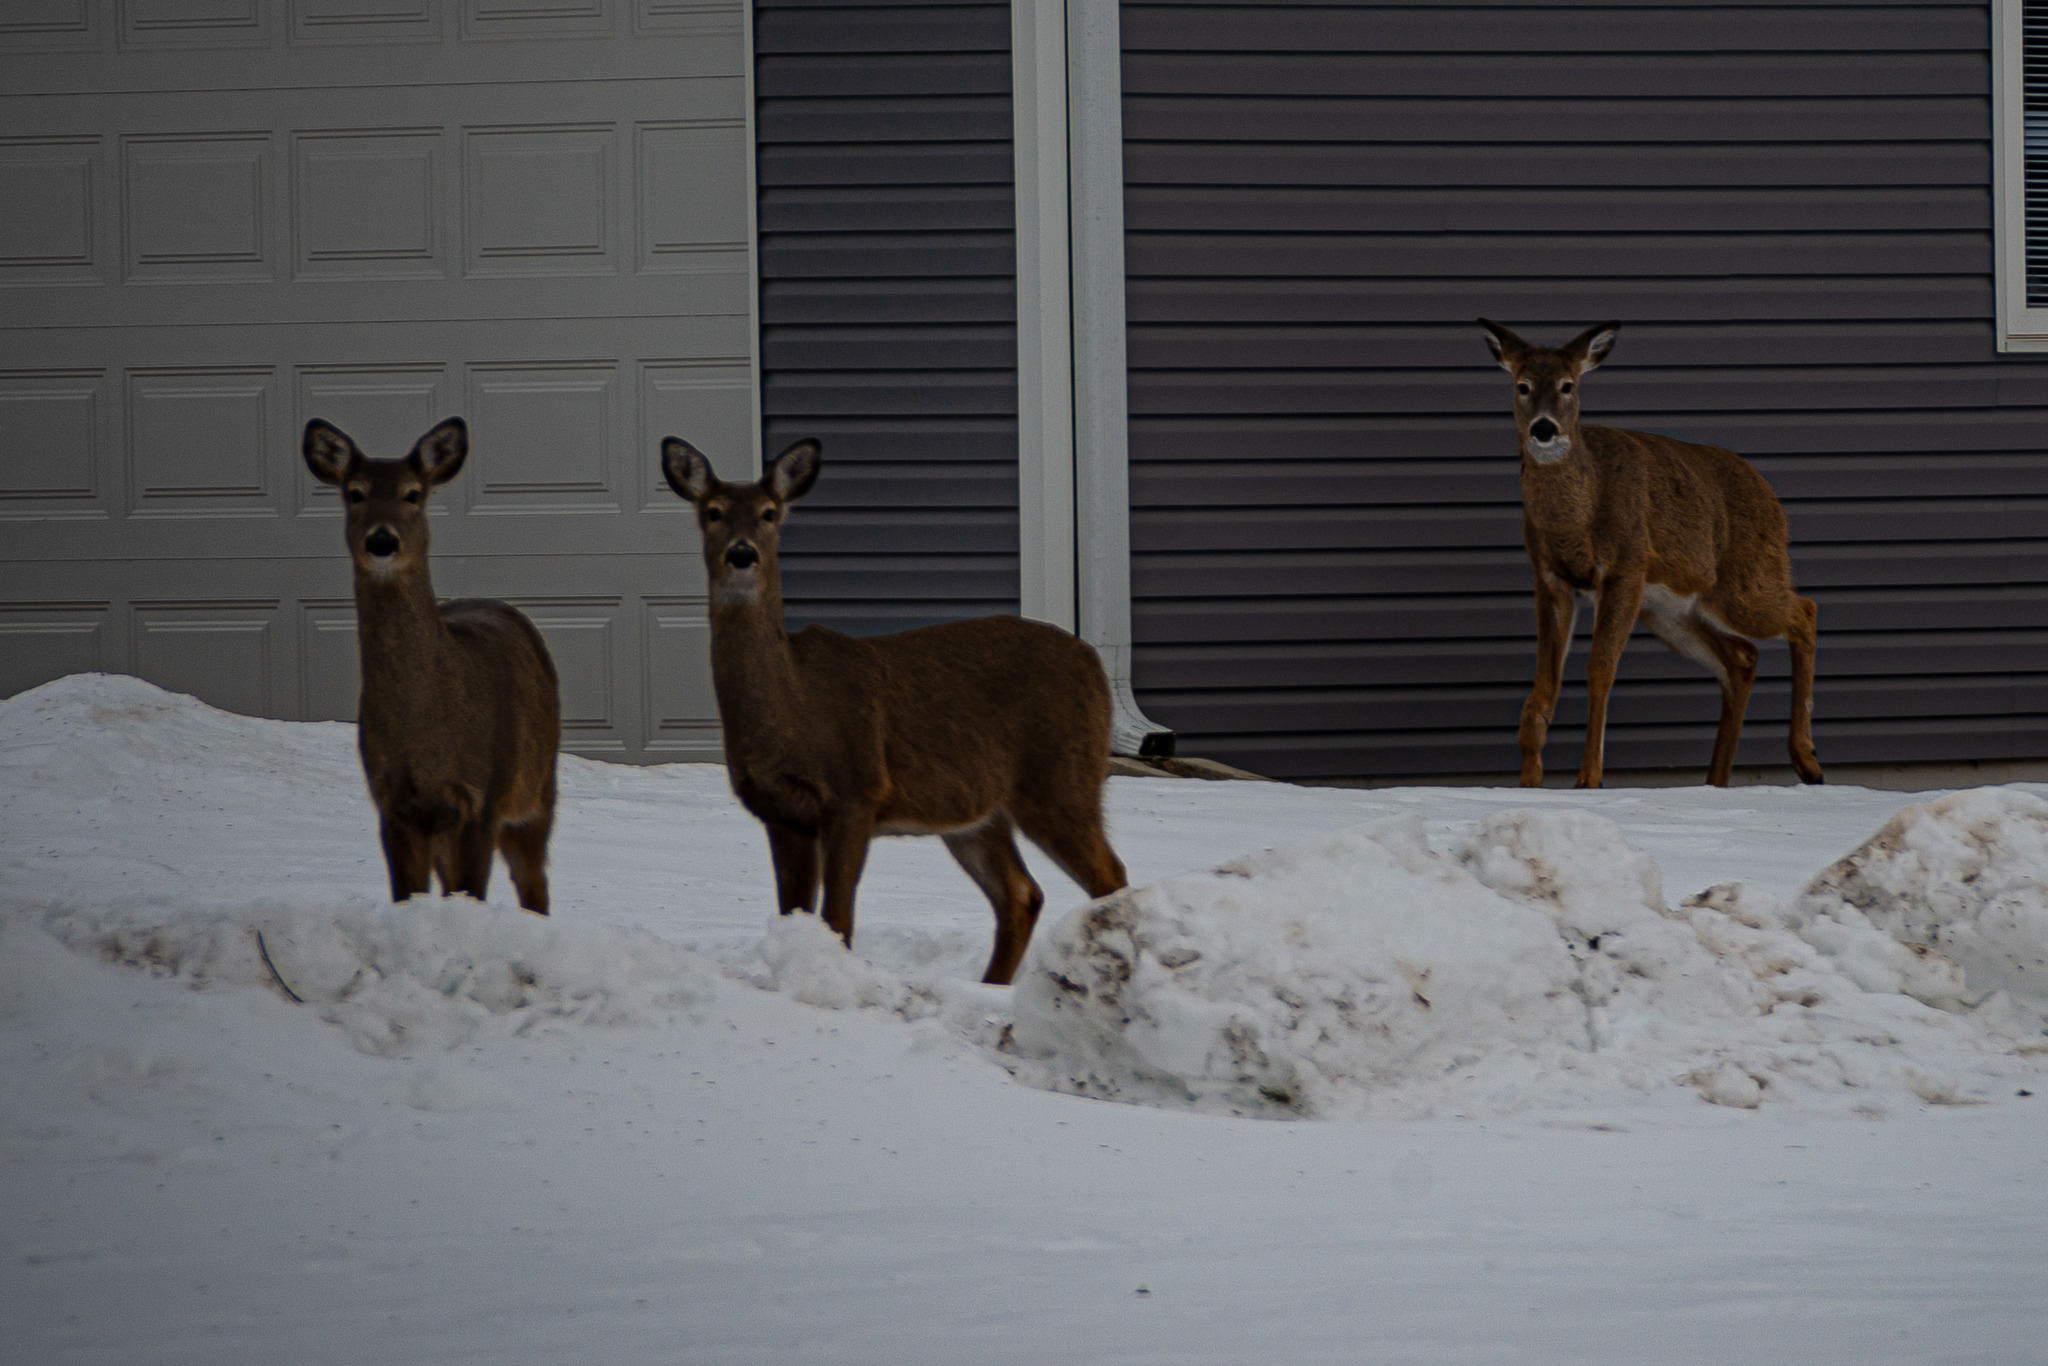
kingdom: Animalia
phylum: Chordata
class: Mammalia
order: Artiodactyla
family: Cervidae
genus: Odocoileus
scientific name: Odocoileus virginianus
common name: White-tailed deer
